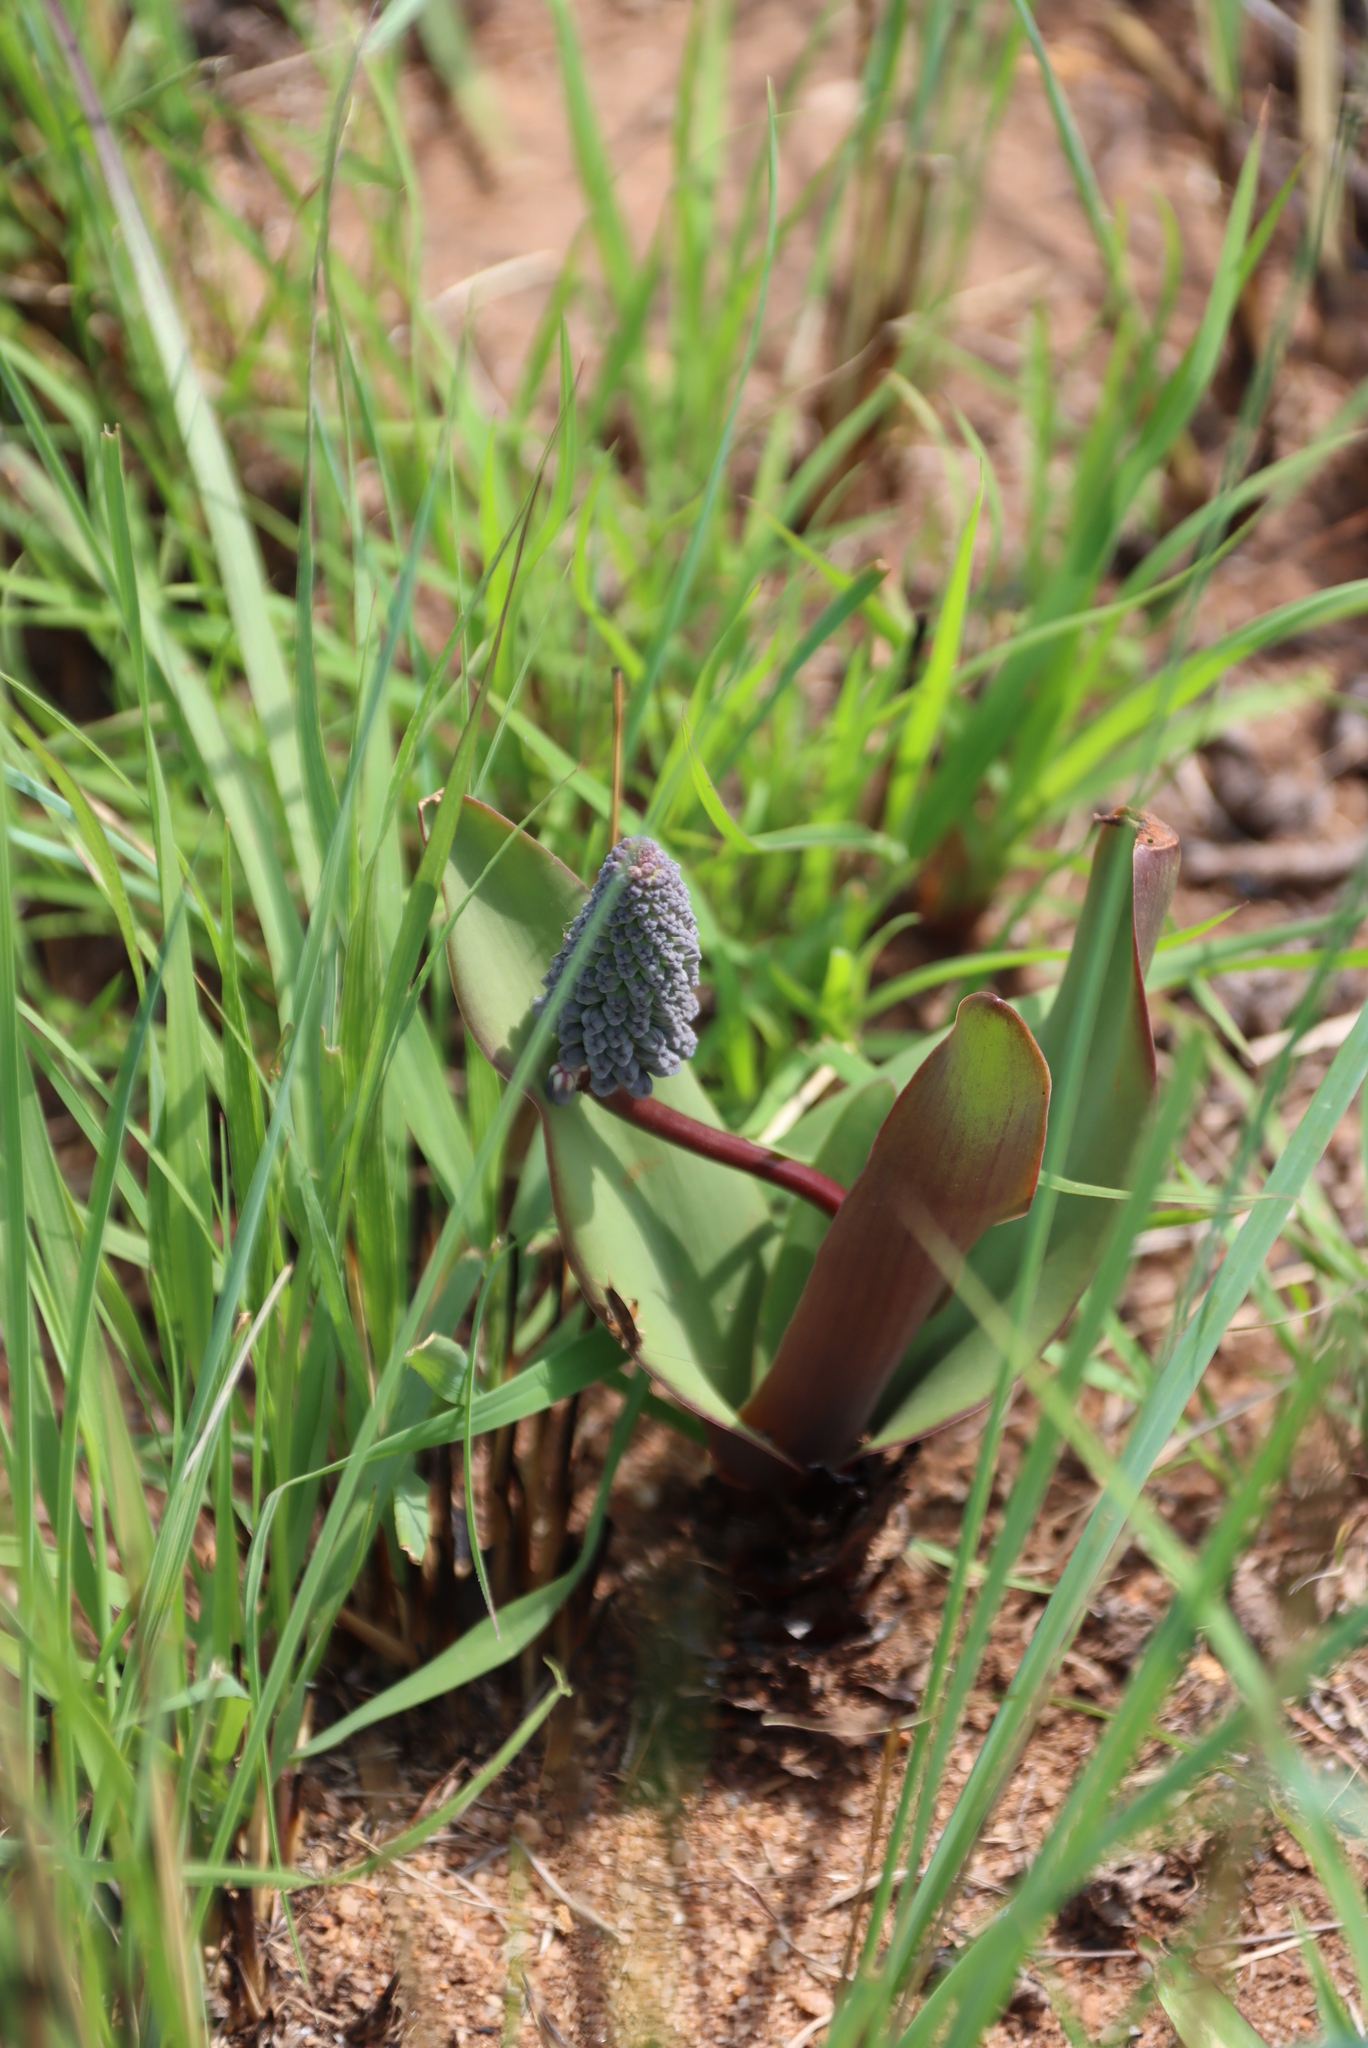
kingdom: Plantae
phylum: Tracheophyta
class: Liliopsida
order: Asparagales
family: Asparagaceae
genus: Ledebouria
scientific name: Ledebouria asperifolia
